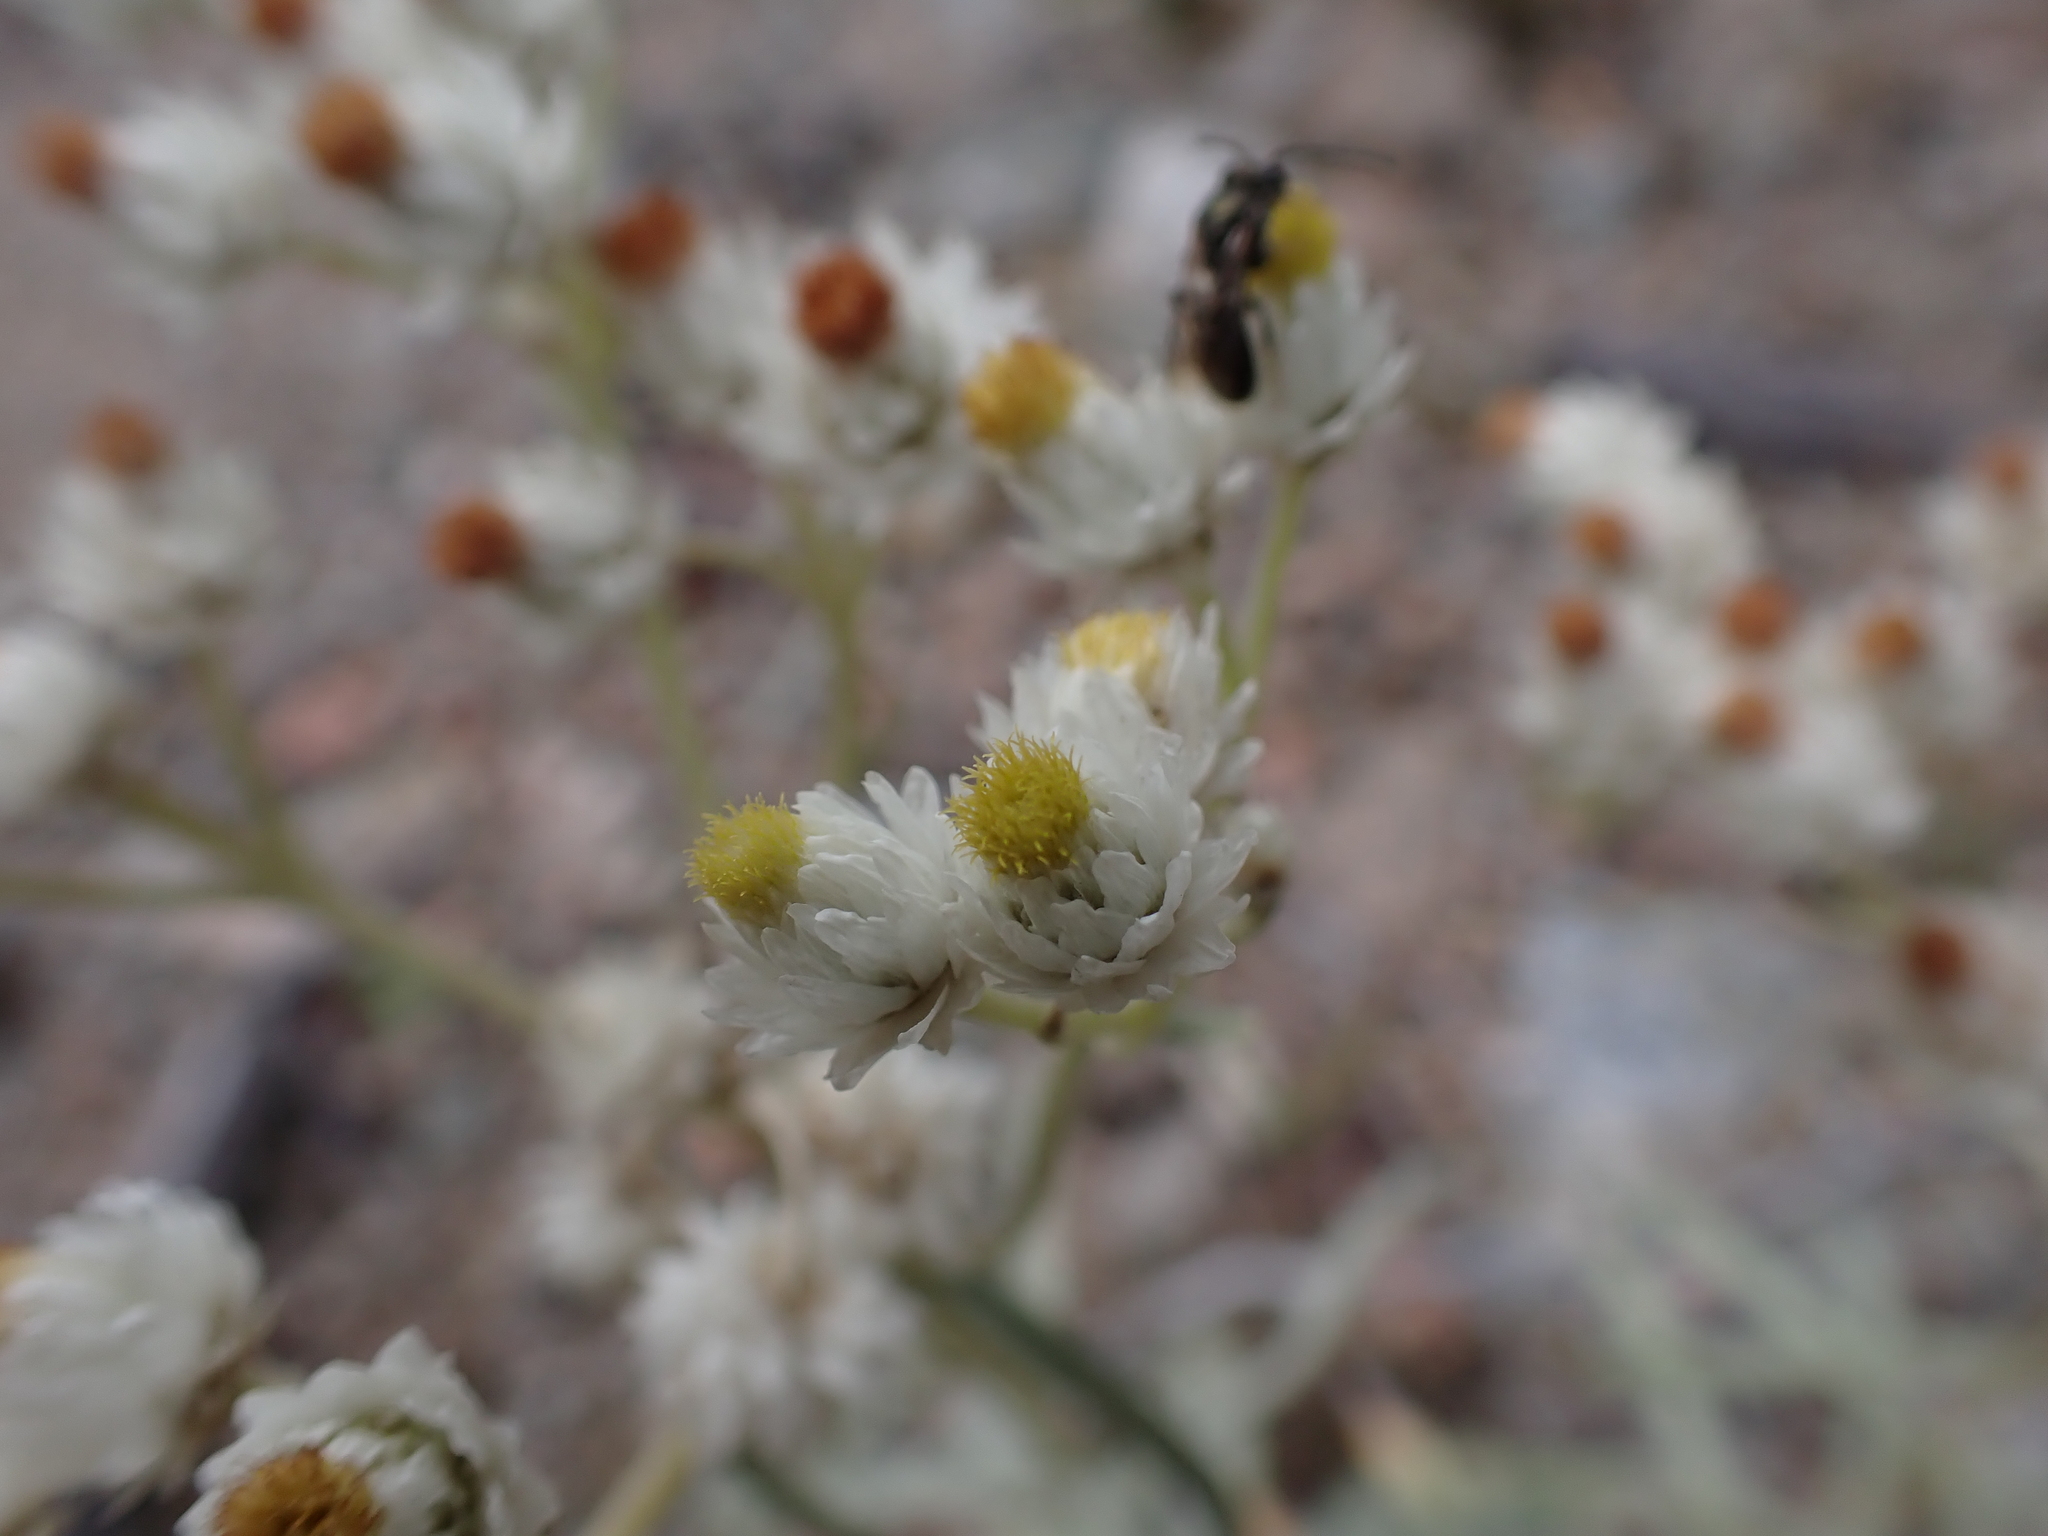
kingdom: Plantae
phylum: Tracheophyta
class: Magnoliopsida
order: Asterales
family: Asteraceae
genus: Anaphalis
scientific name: Anaphalis margaritacea
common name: Pearly everlasting
